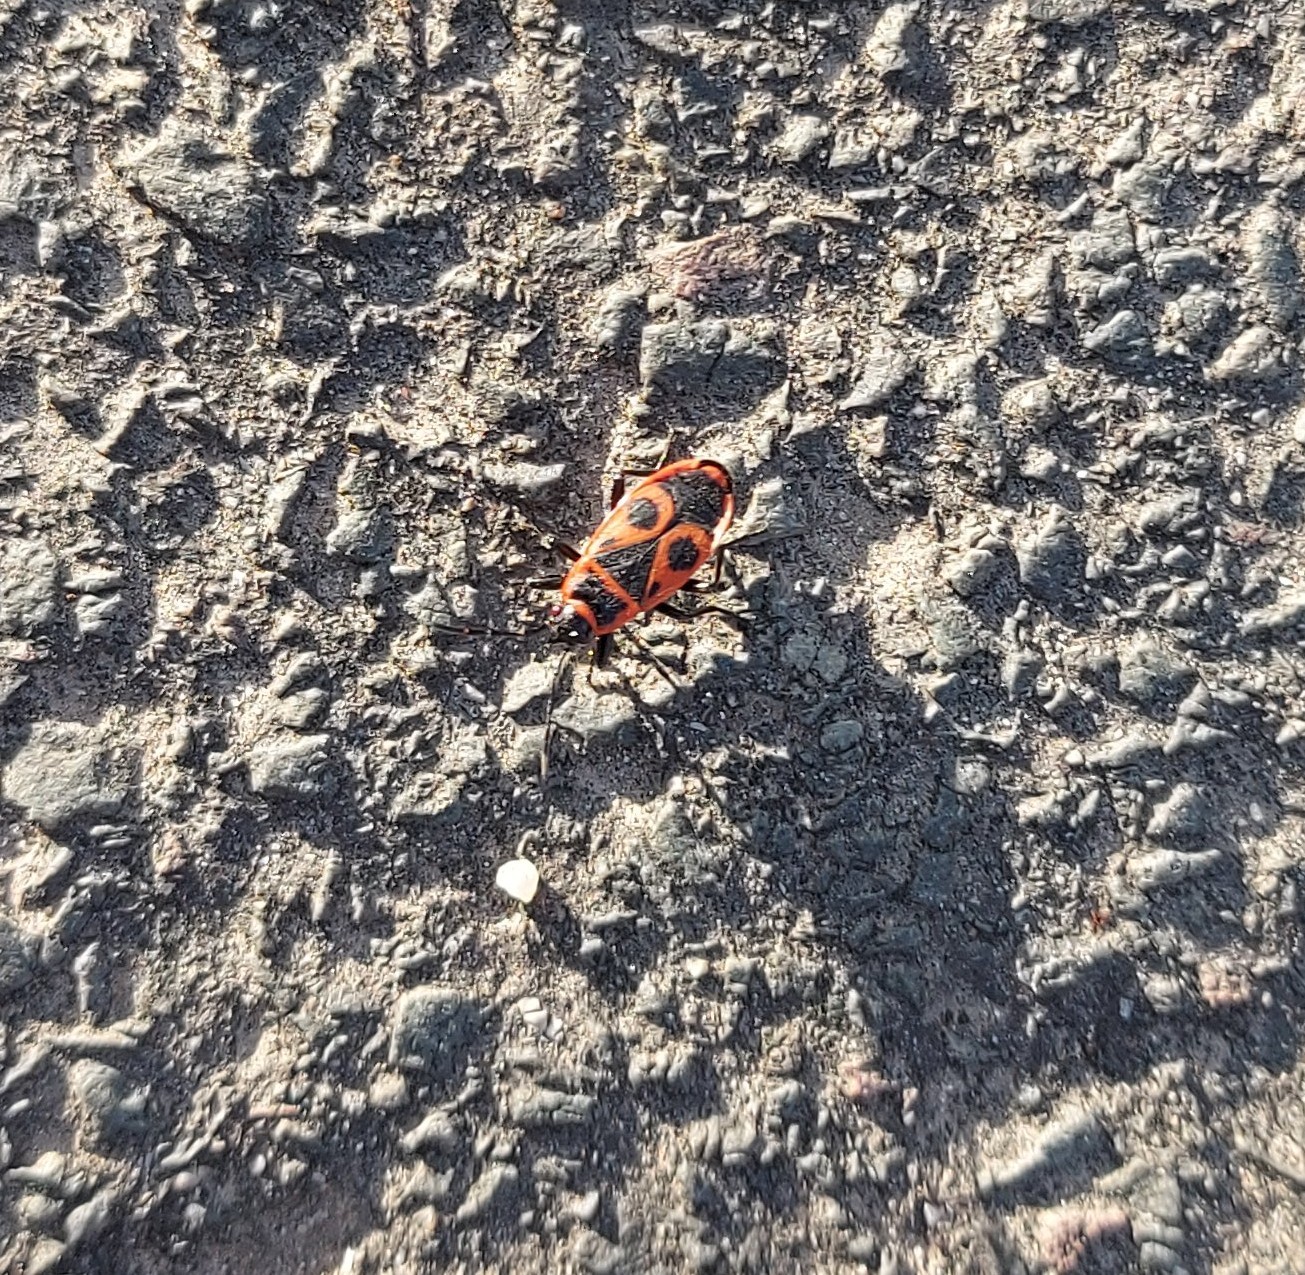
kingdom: Animalia
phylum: Arthropoda
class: Insecta
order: Hemiptera
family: Pyrrhocoridae
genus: Pyrrhocoris
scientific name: Pyrrhocoris apterus
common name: Firebug
